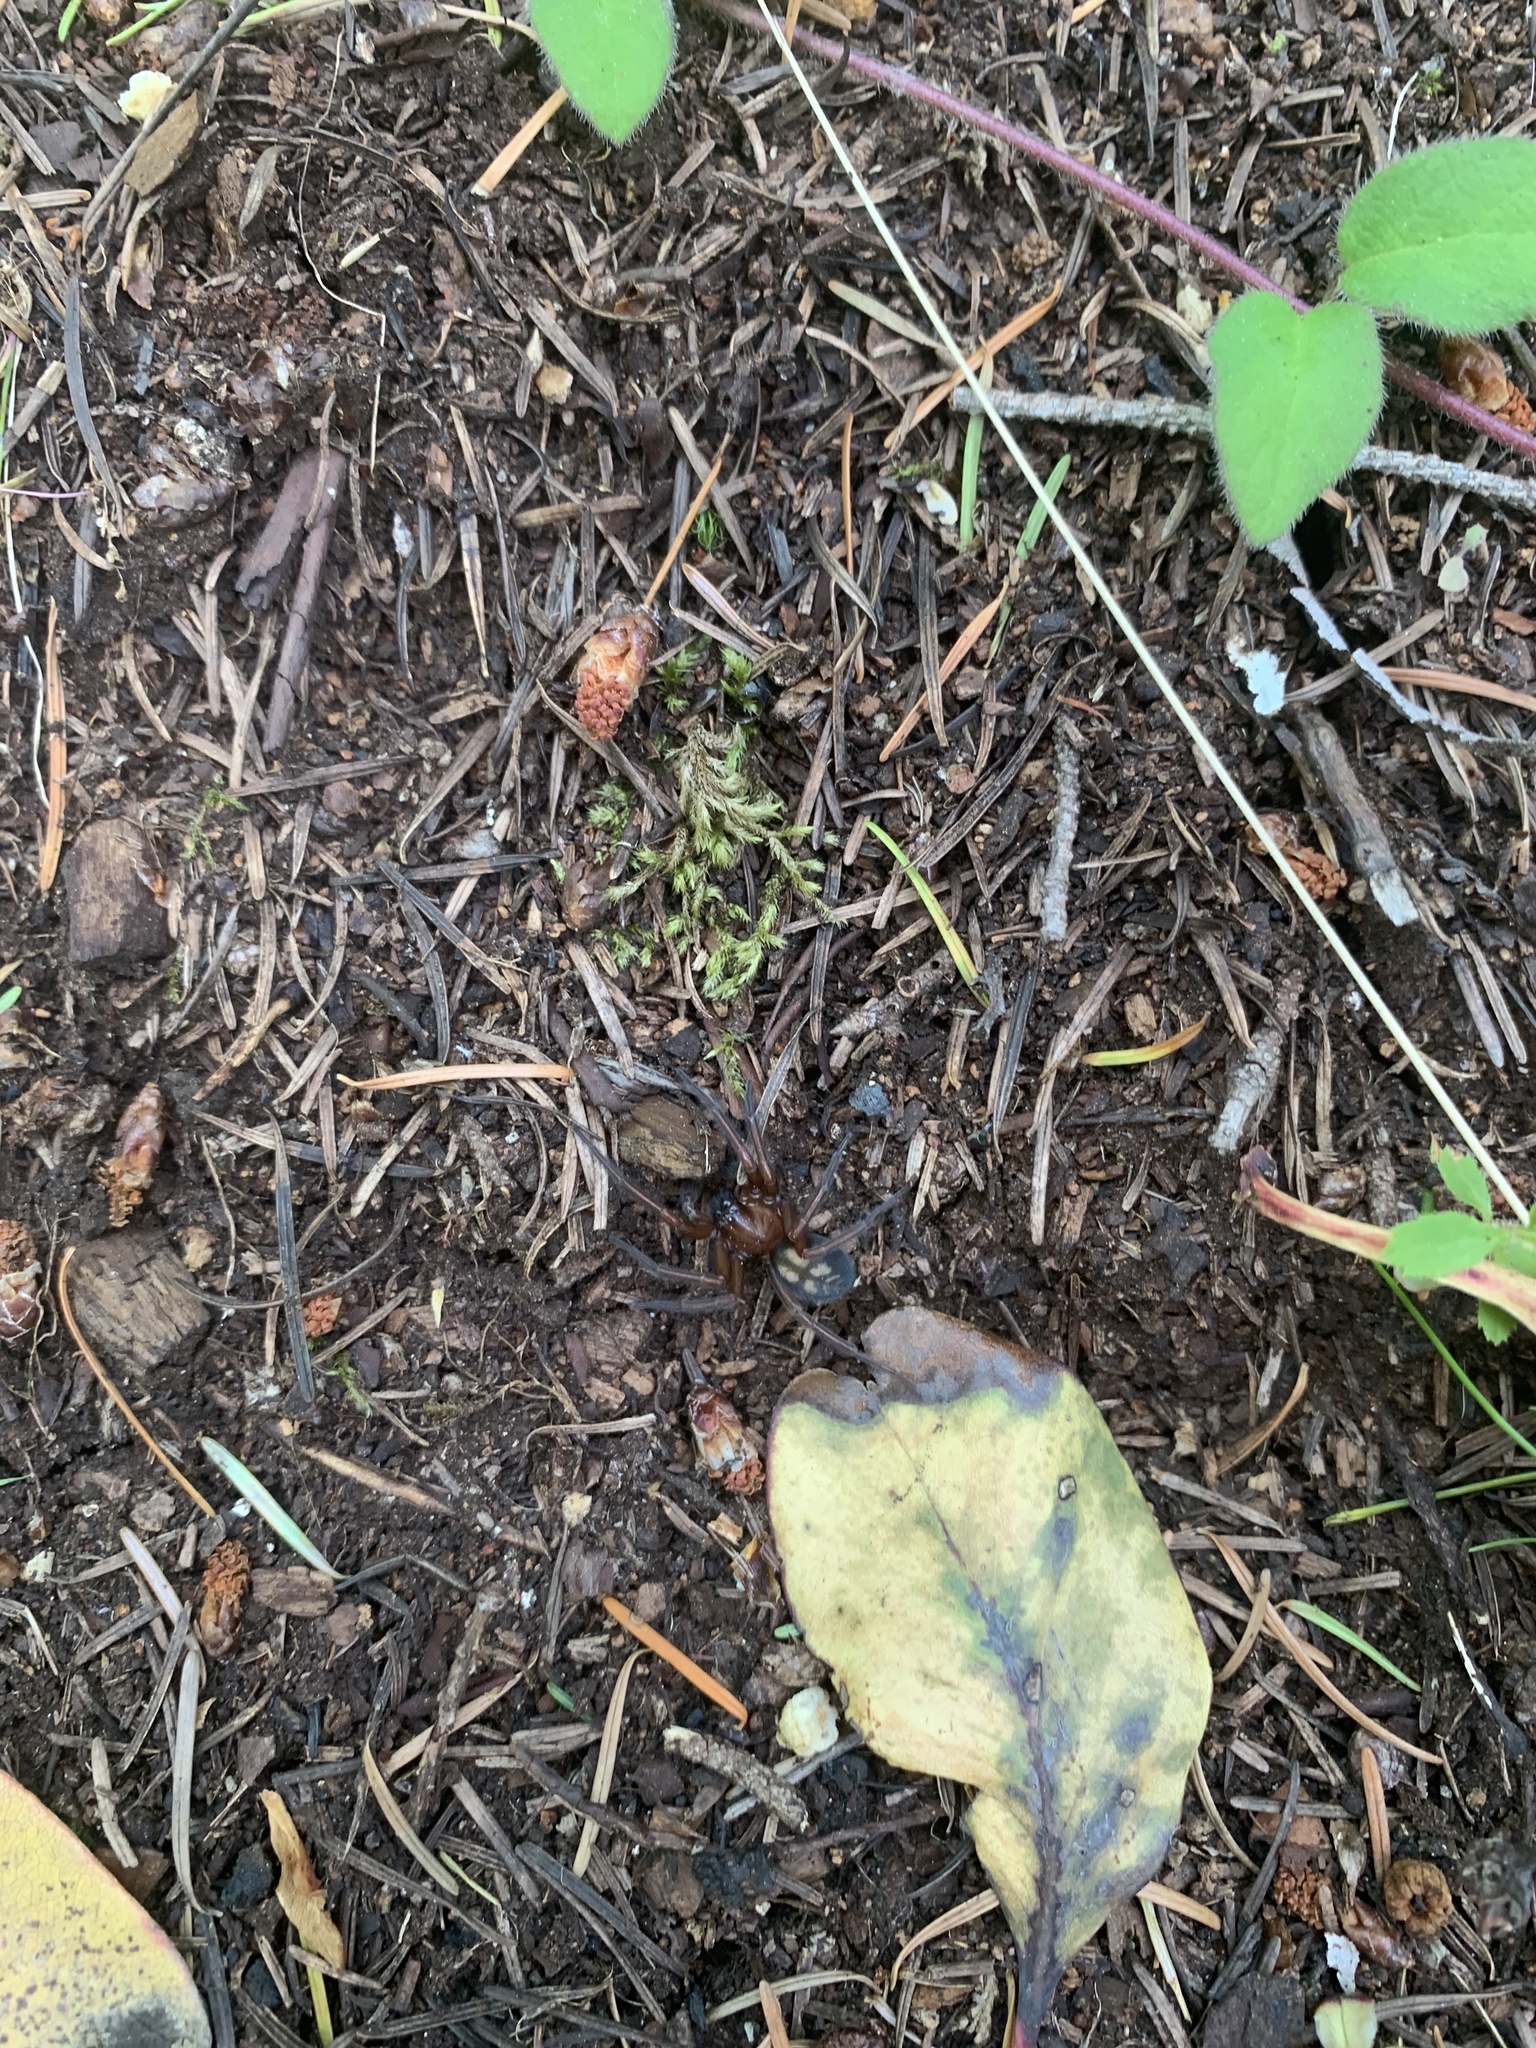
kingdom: Animalia
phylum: Arthropoda
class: Arachnida
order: Araneae
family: Amaurobiidae
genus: Callobius
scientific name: Callobius severus
